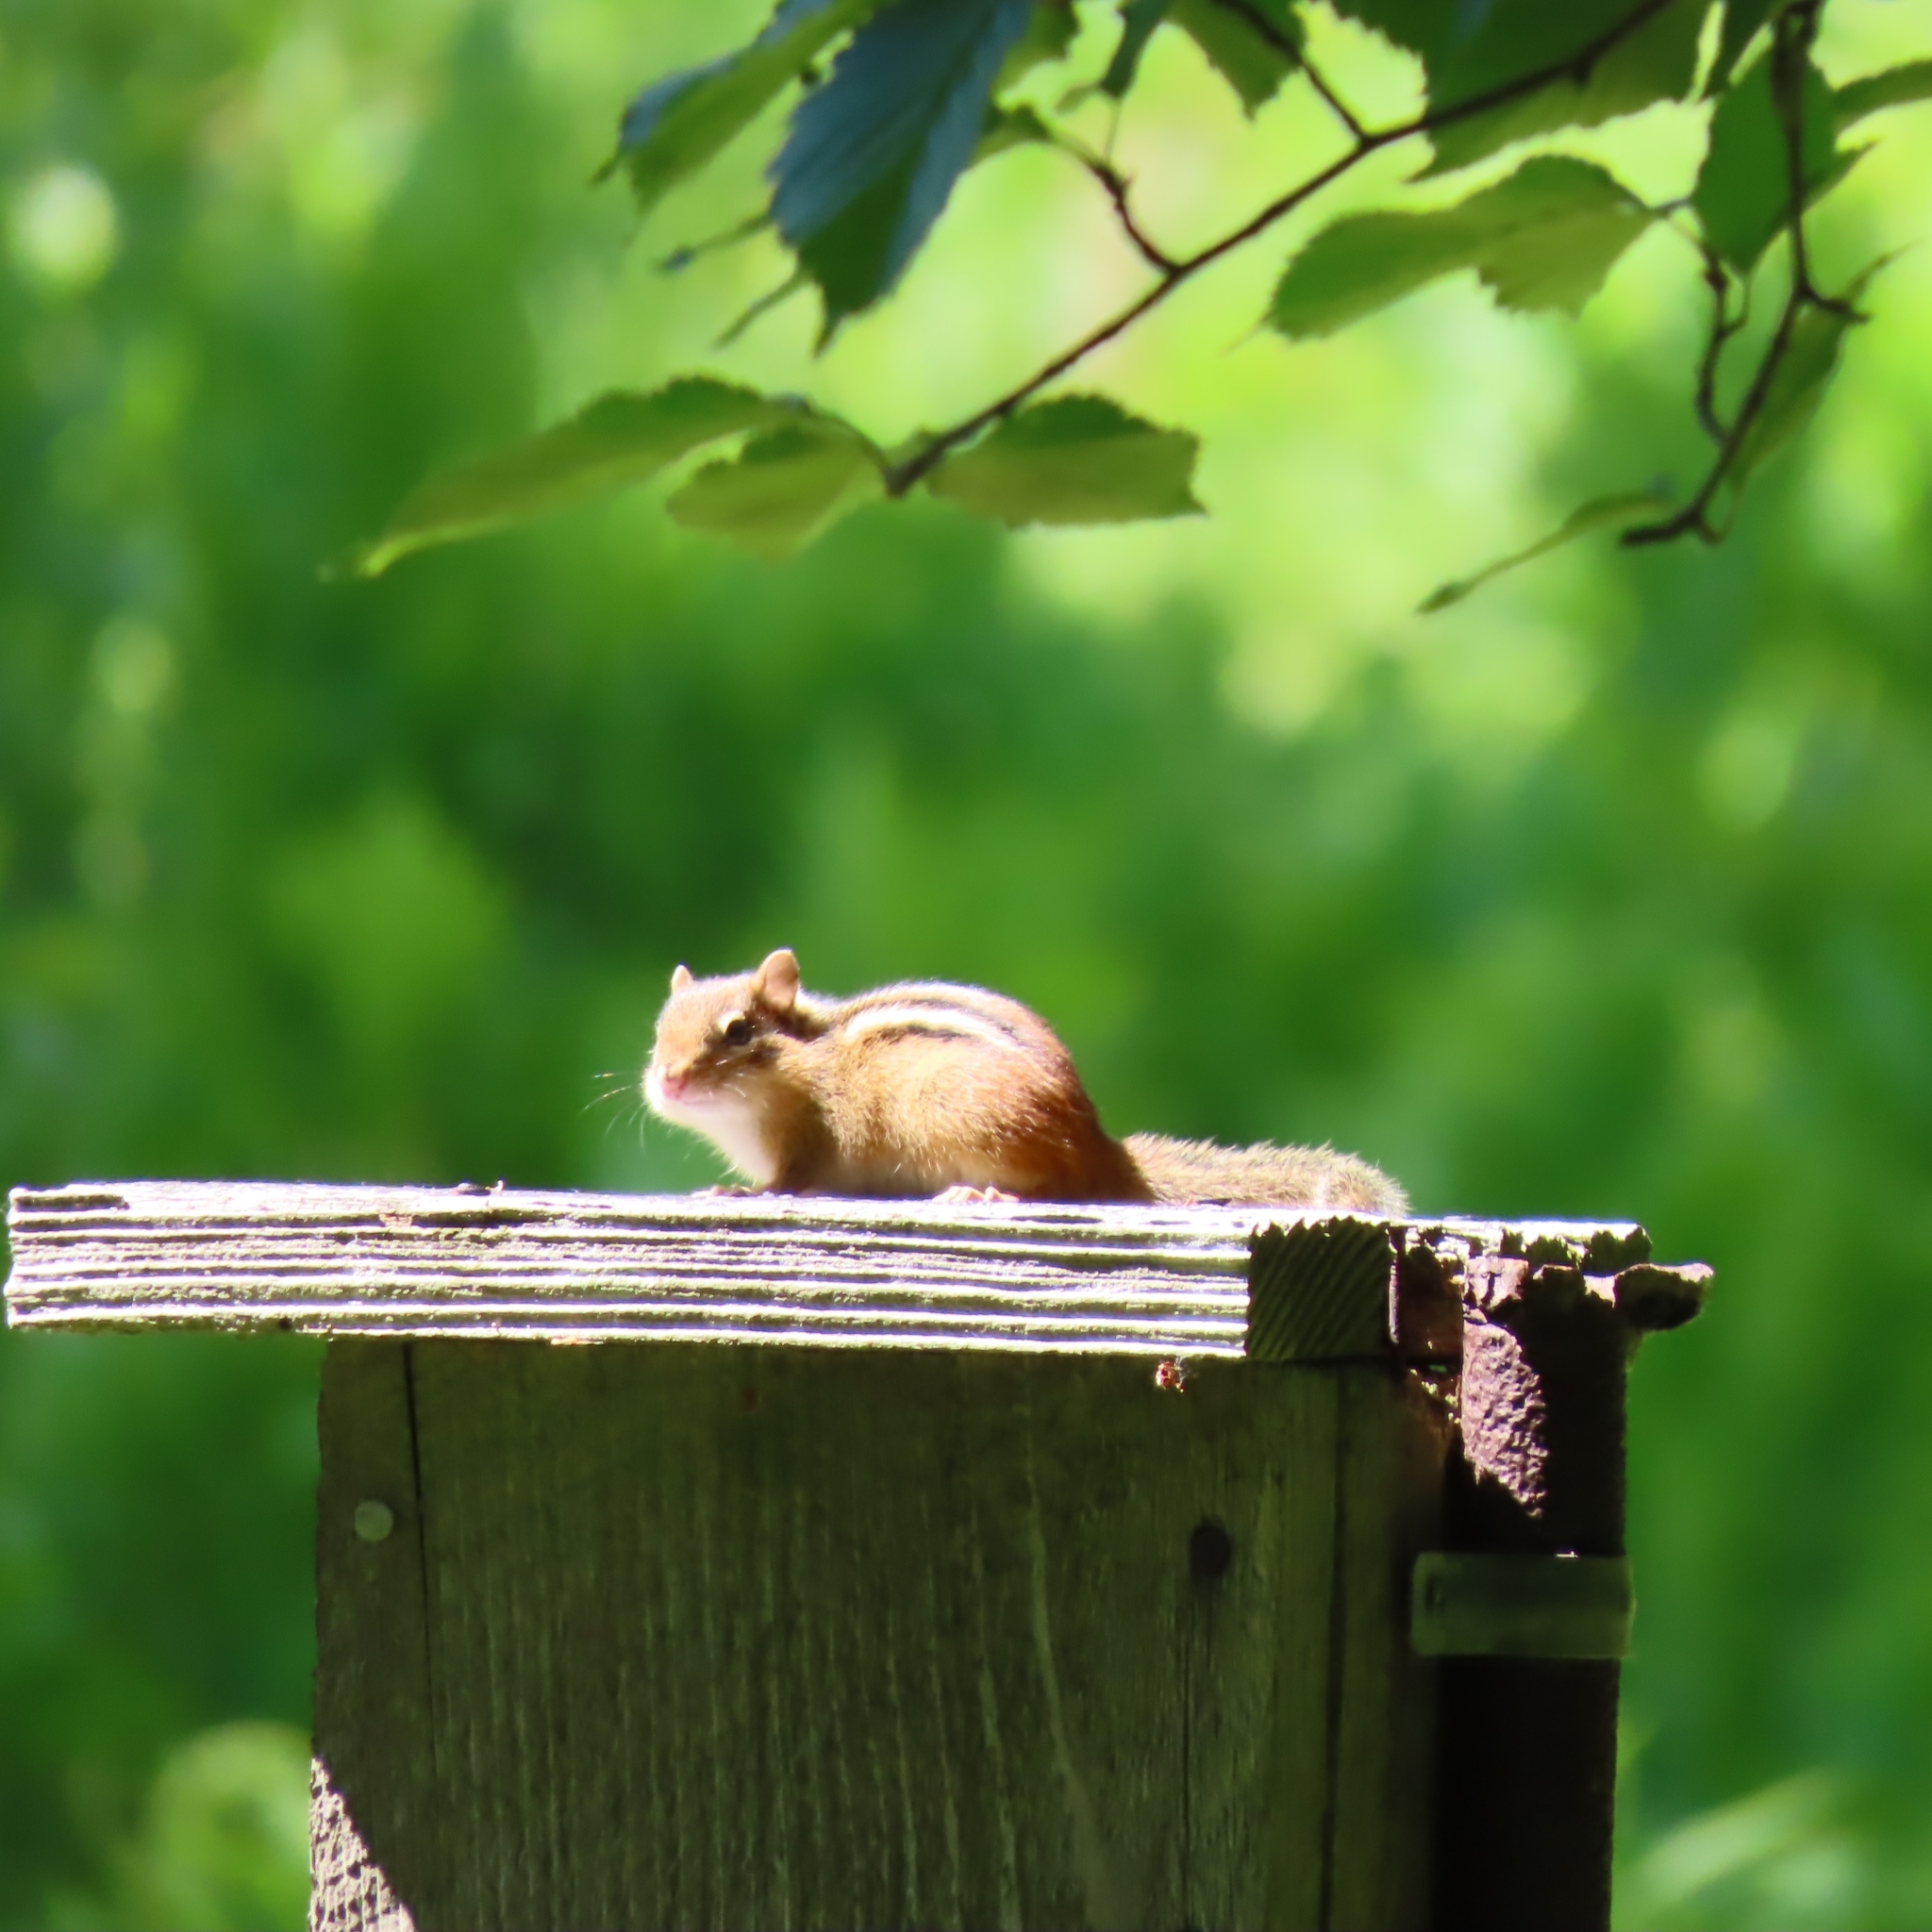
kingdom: Animalia
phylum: Chordata
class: Mammalia
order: Rodentia
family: Sciuridae
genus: Tamias
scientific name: Tamias striatus
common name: Eastern chipmunk
